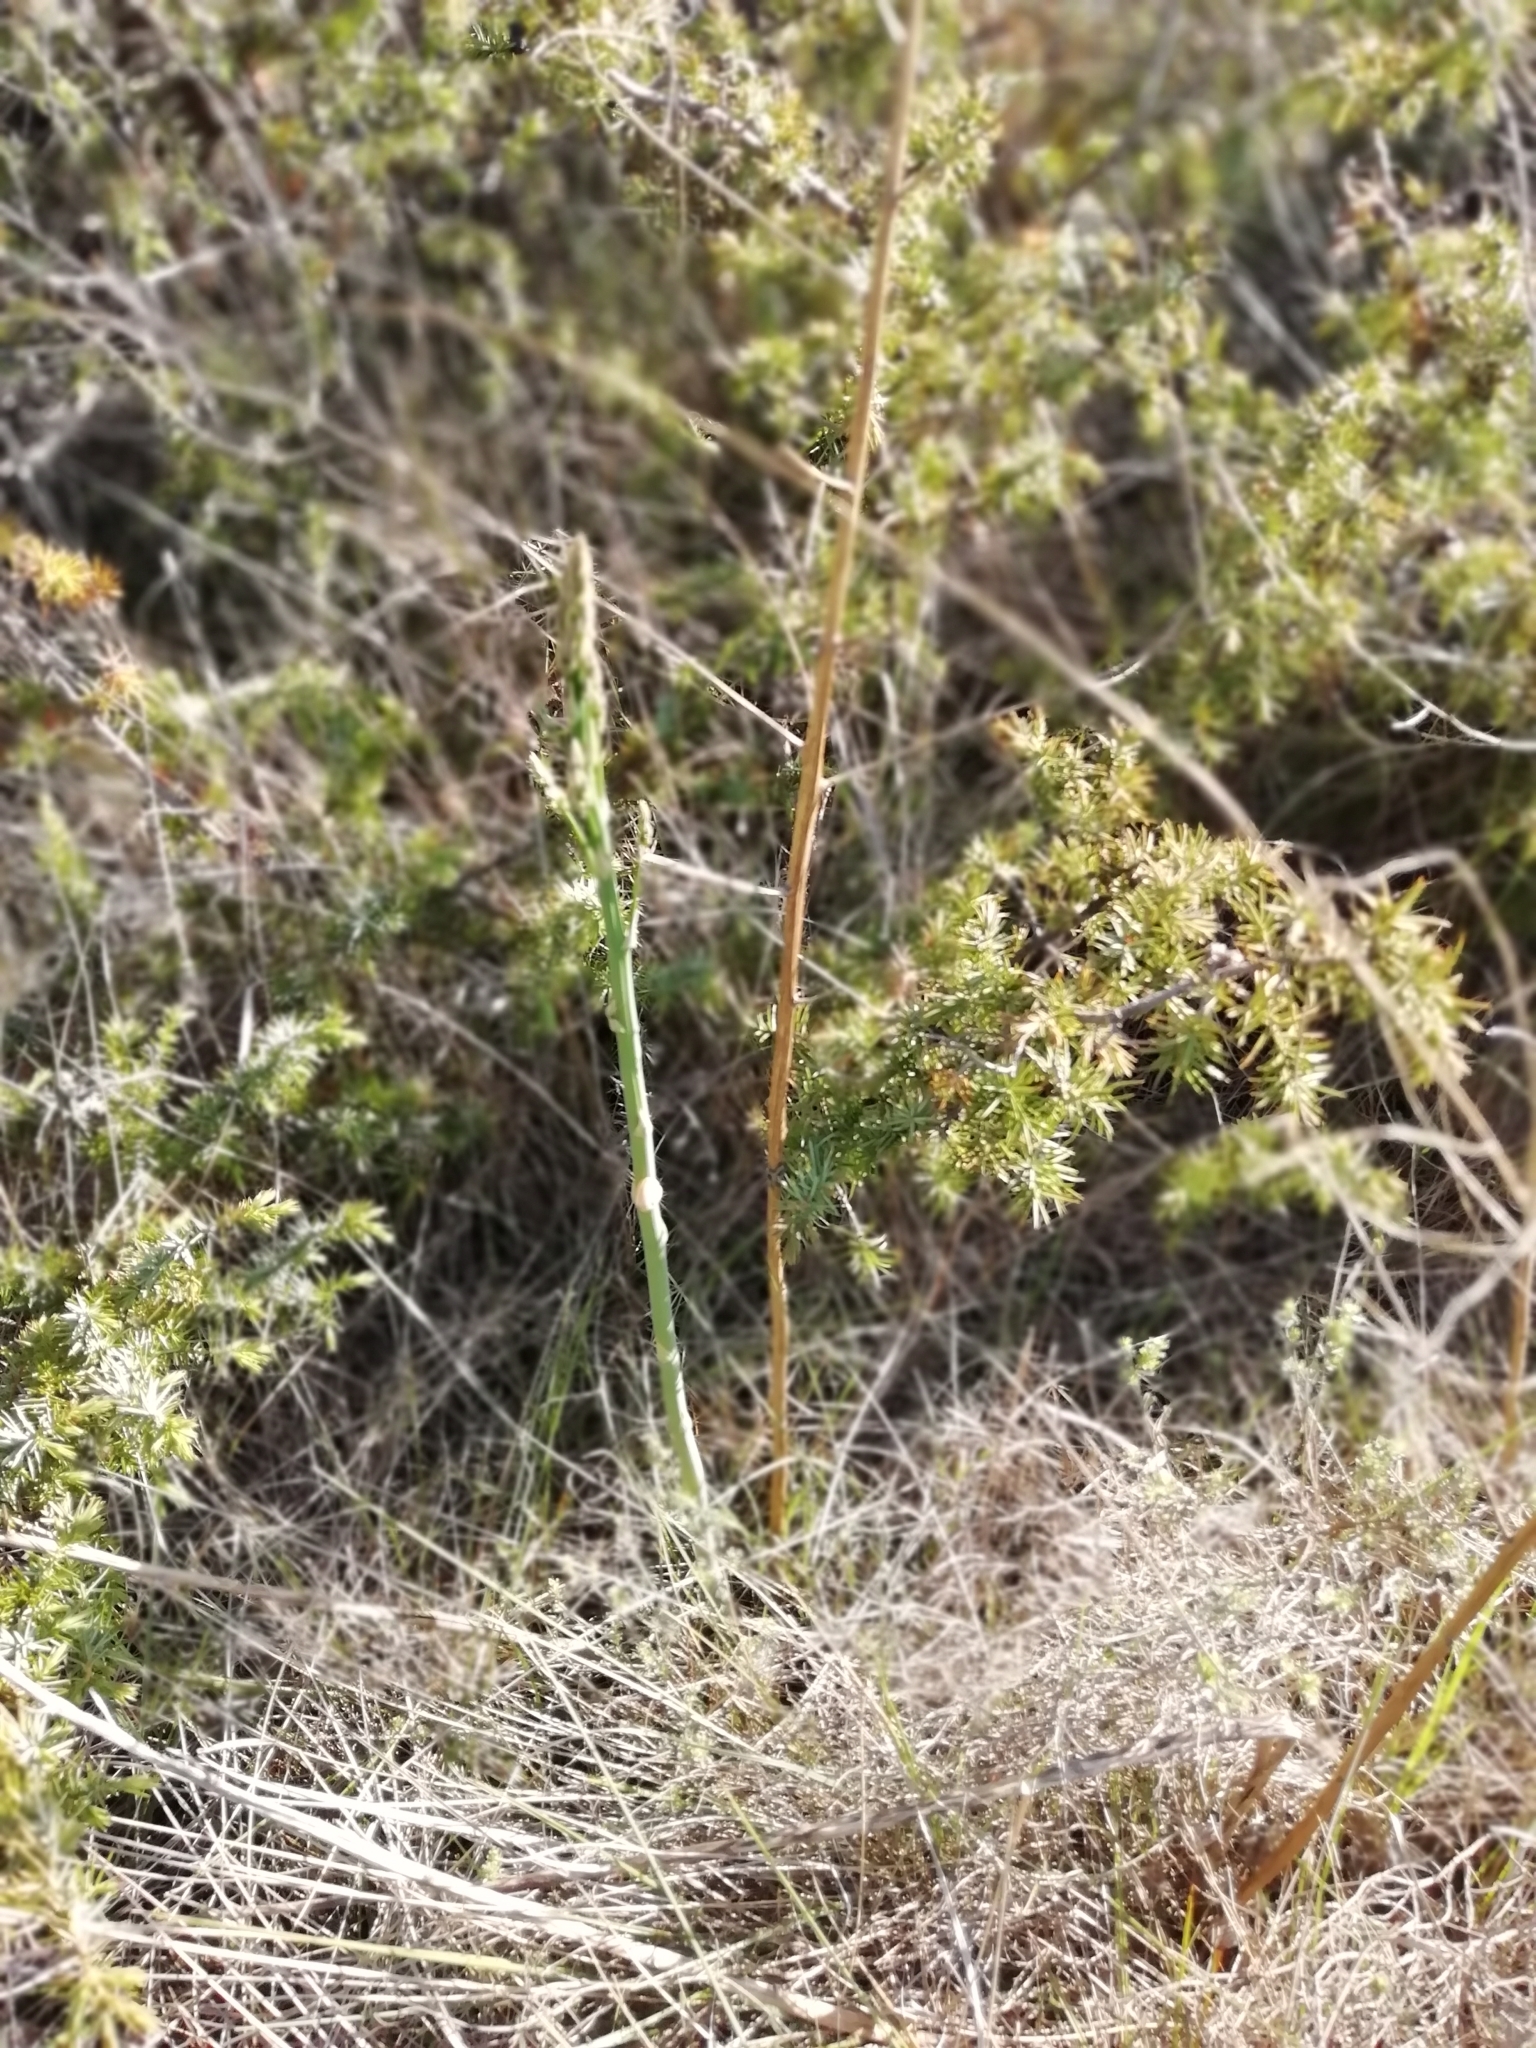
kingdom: Plantae
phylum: Tracheophyta
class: Liliopsida
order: Asparagales
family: Asparagaceae
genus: Asparagus
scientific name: Asparagus officinalis
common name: Garden asparagus
